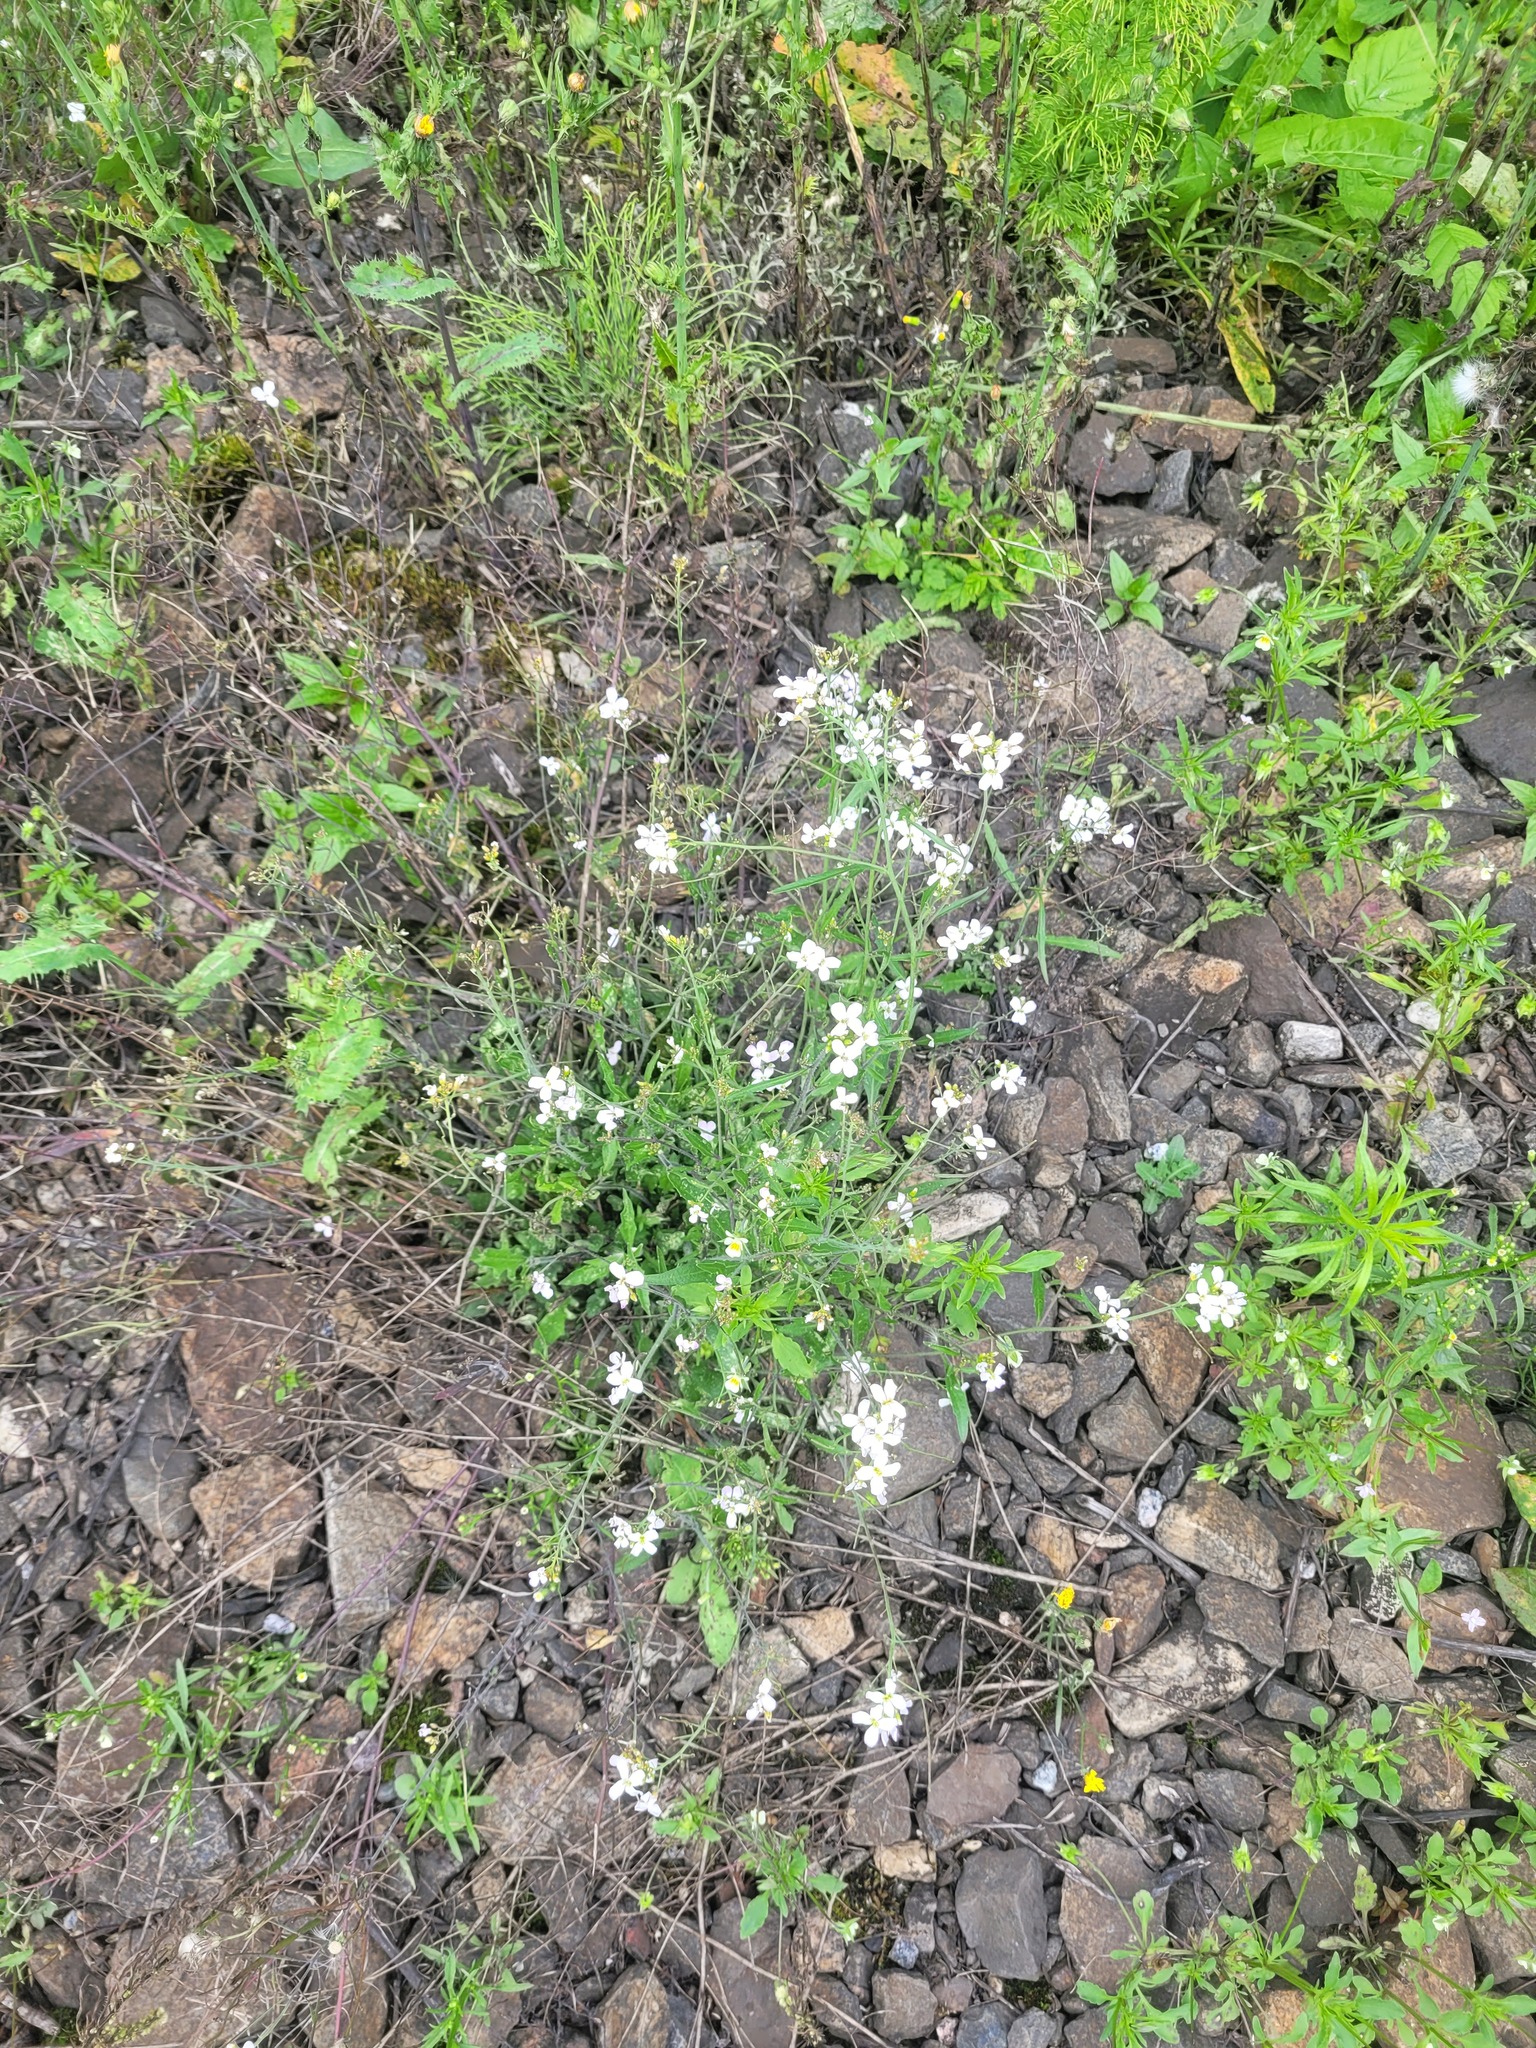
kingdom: Plantae
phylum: Tracheophyta
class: Magnoliopsida
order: Brassicales
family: Brassicaceae
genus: Arabidopsis
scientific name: Arabidopsis arenosa
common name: Sand rock-cress
